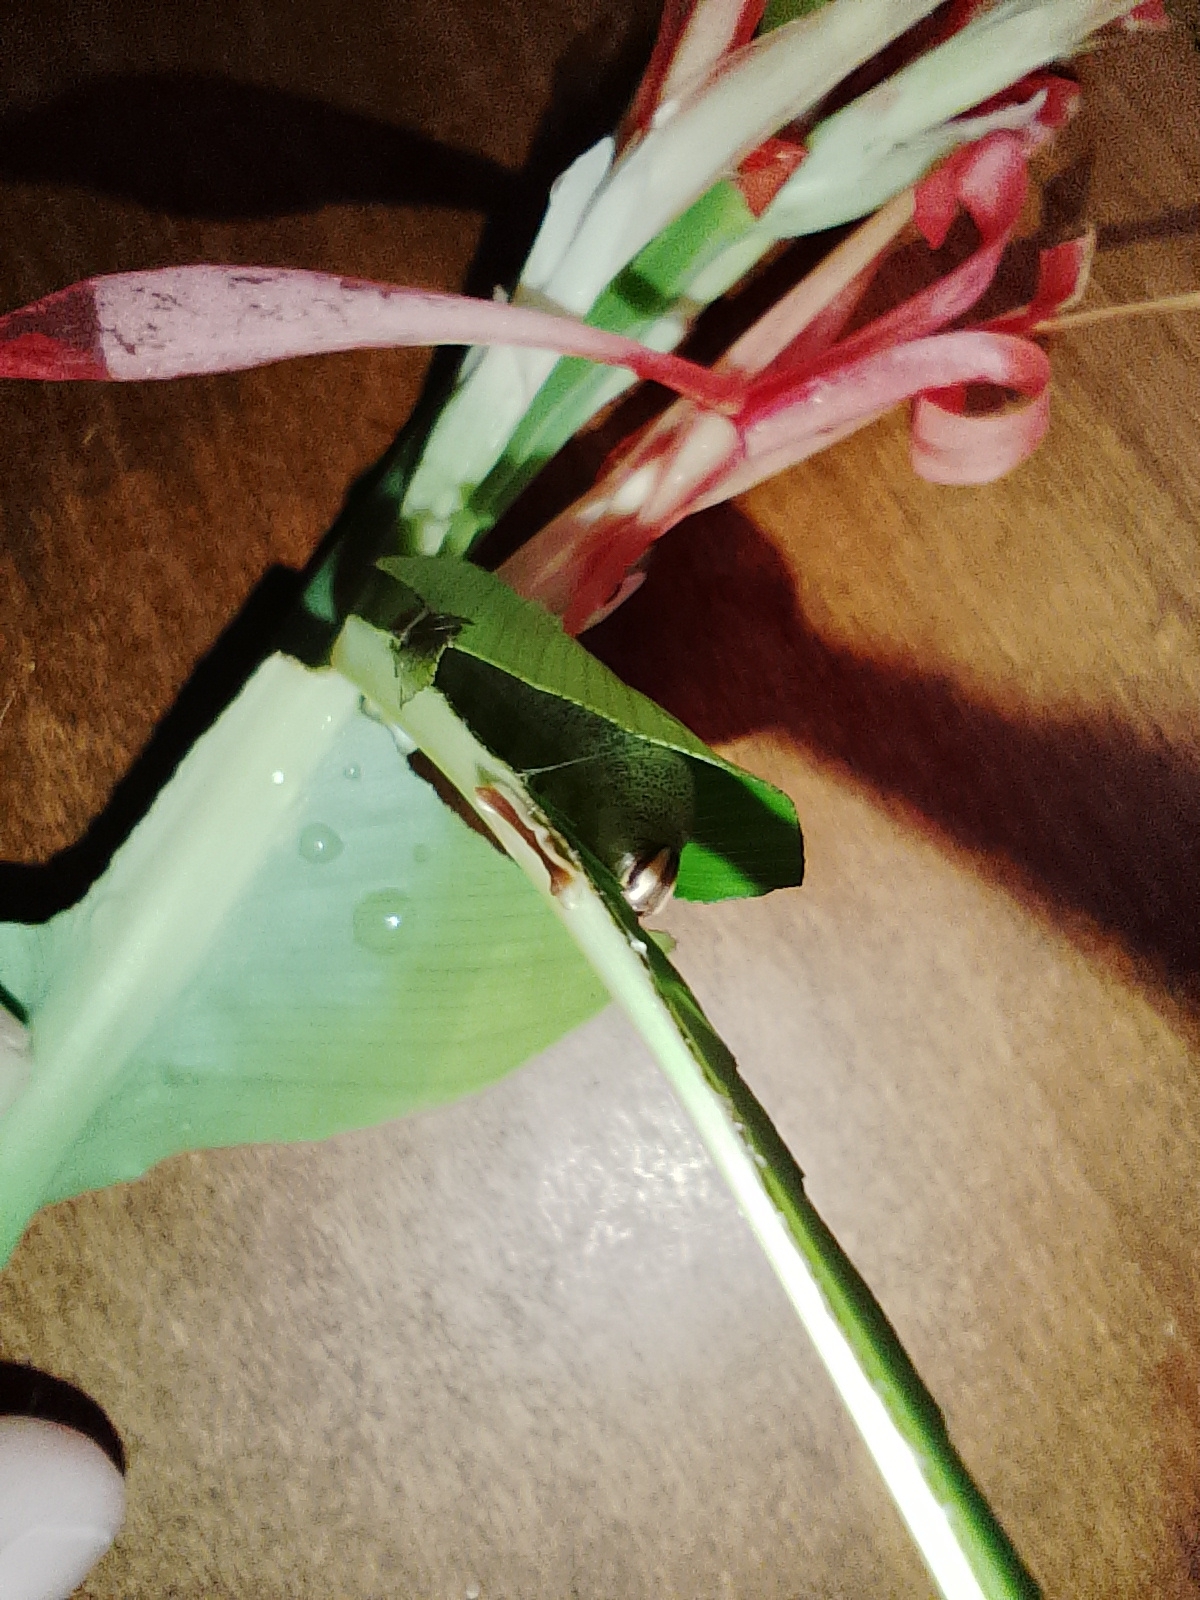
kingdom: Animalia
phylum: Arthropoda
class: Insecta
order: Lepidoptera
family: Hesperiidae
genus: Quinta
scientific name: Quinta cannae
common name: Canna skipper
